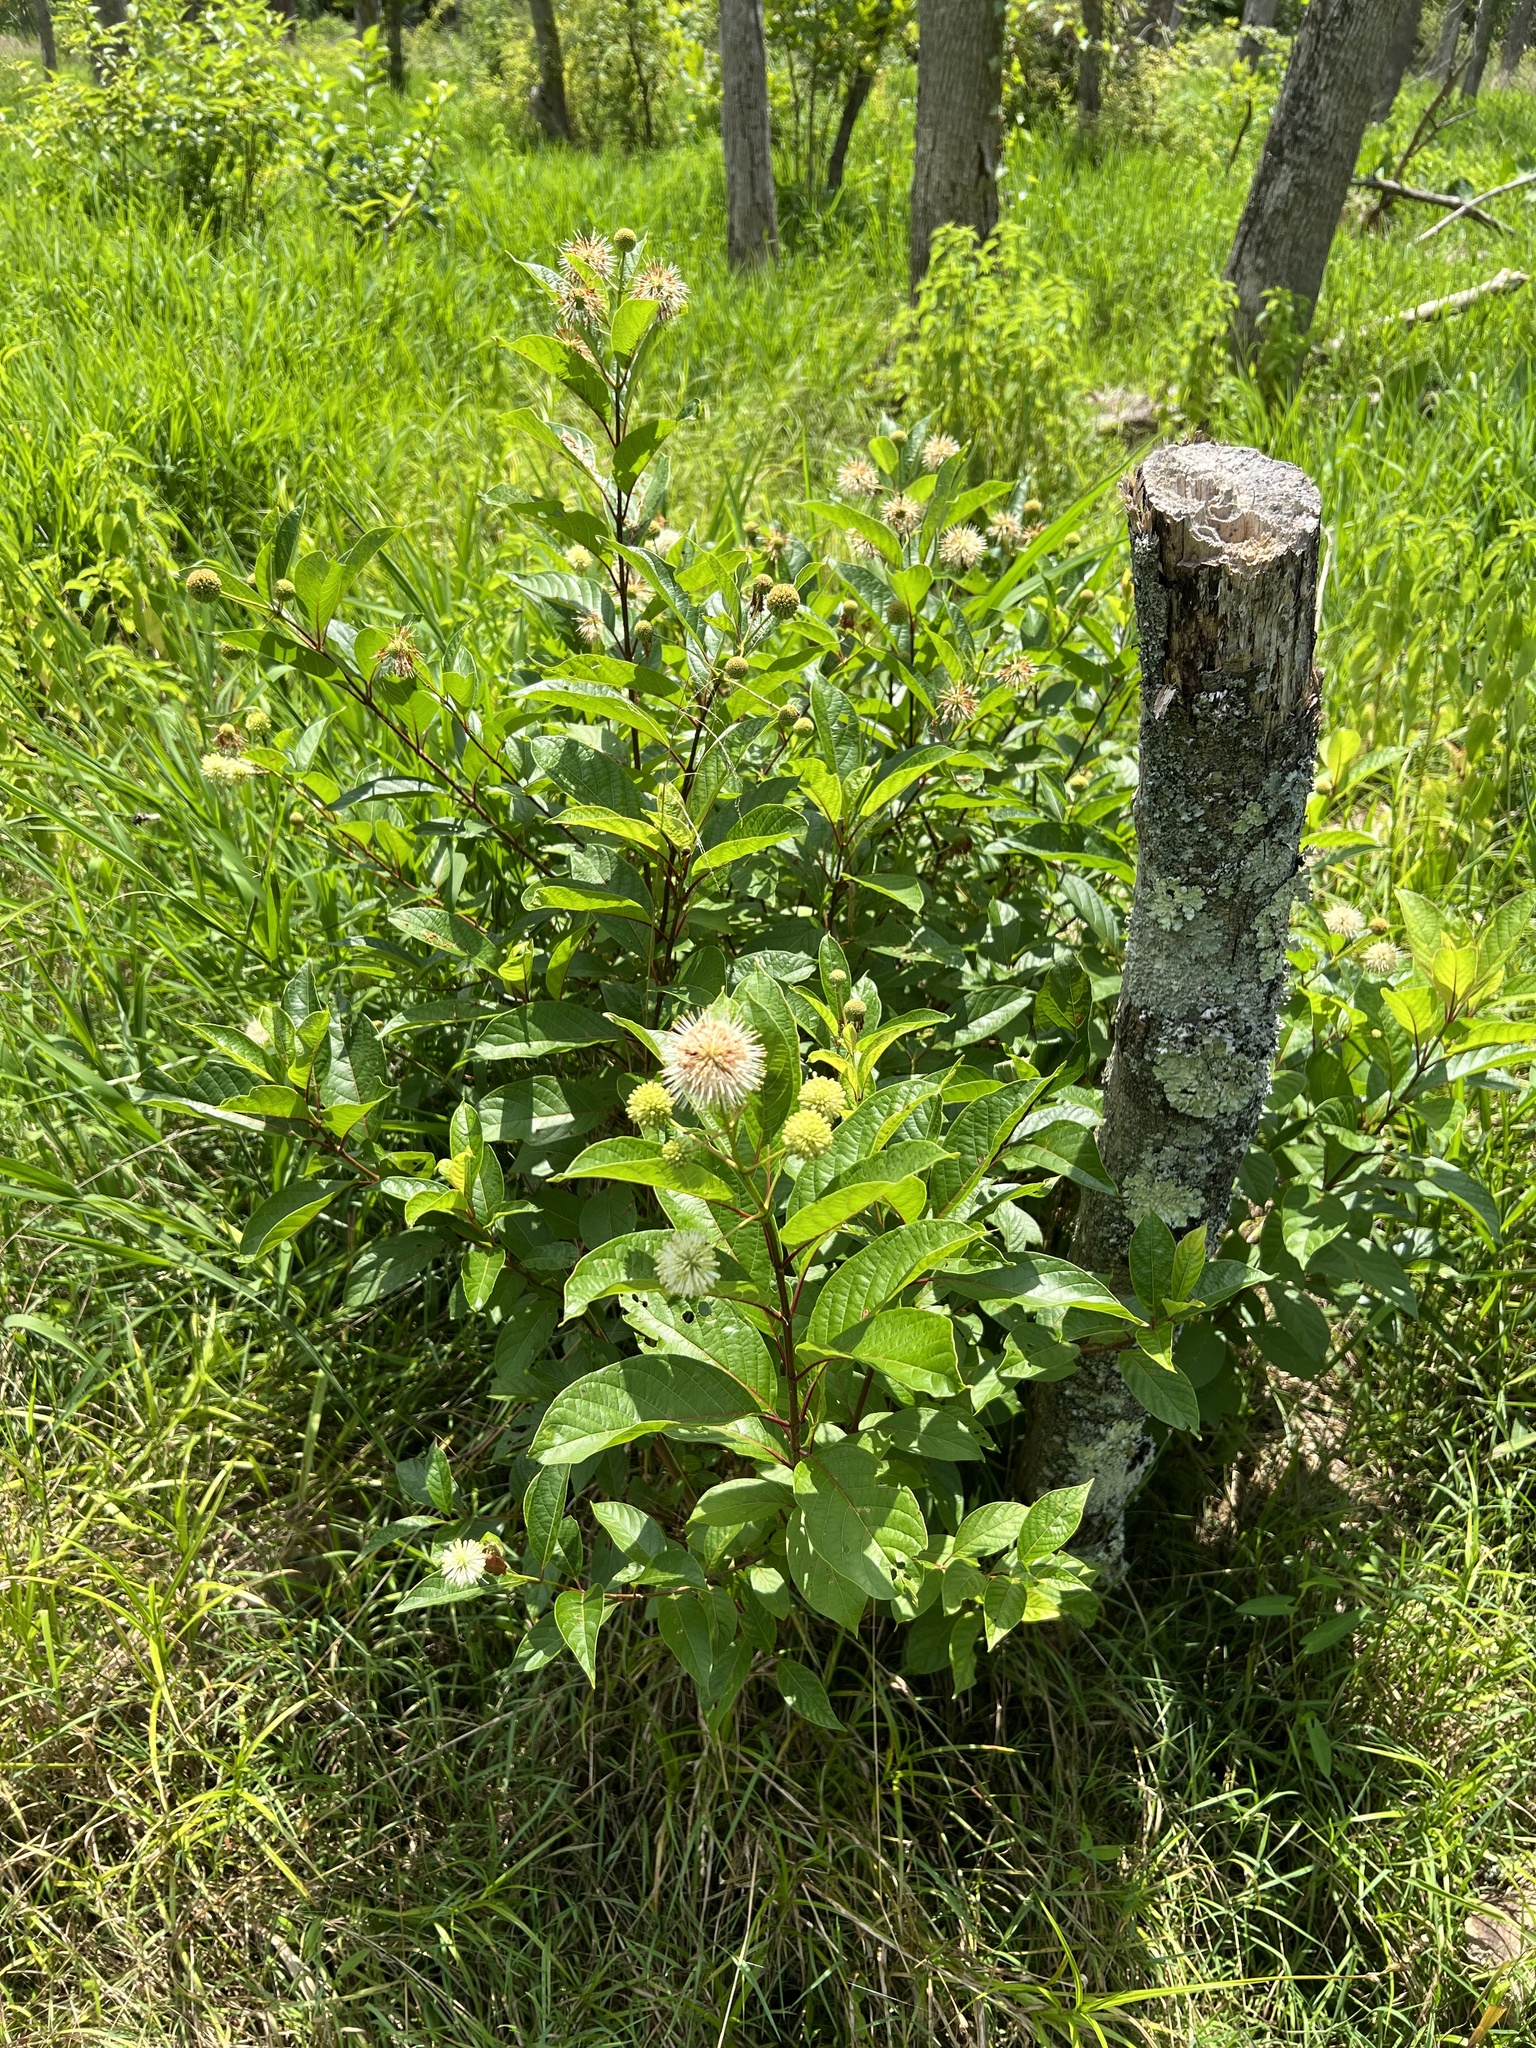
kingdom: Plantae
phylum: Tracheophyta
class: Magnoliopsida
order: Gentianales
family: Rubiaceae
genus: Cephalanthus
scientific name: Cephalanthus occidentalis
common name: Button-willow
